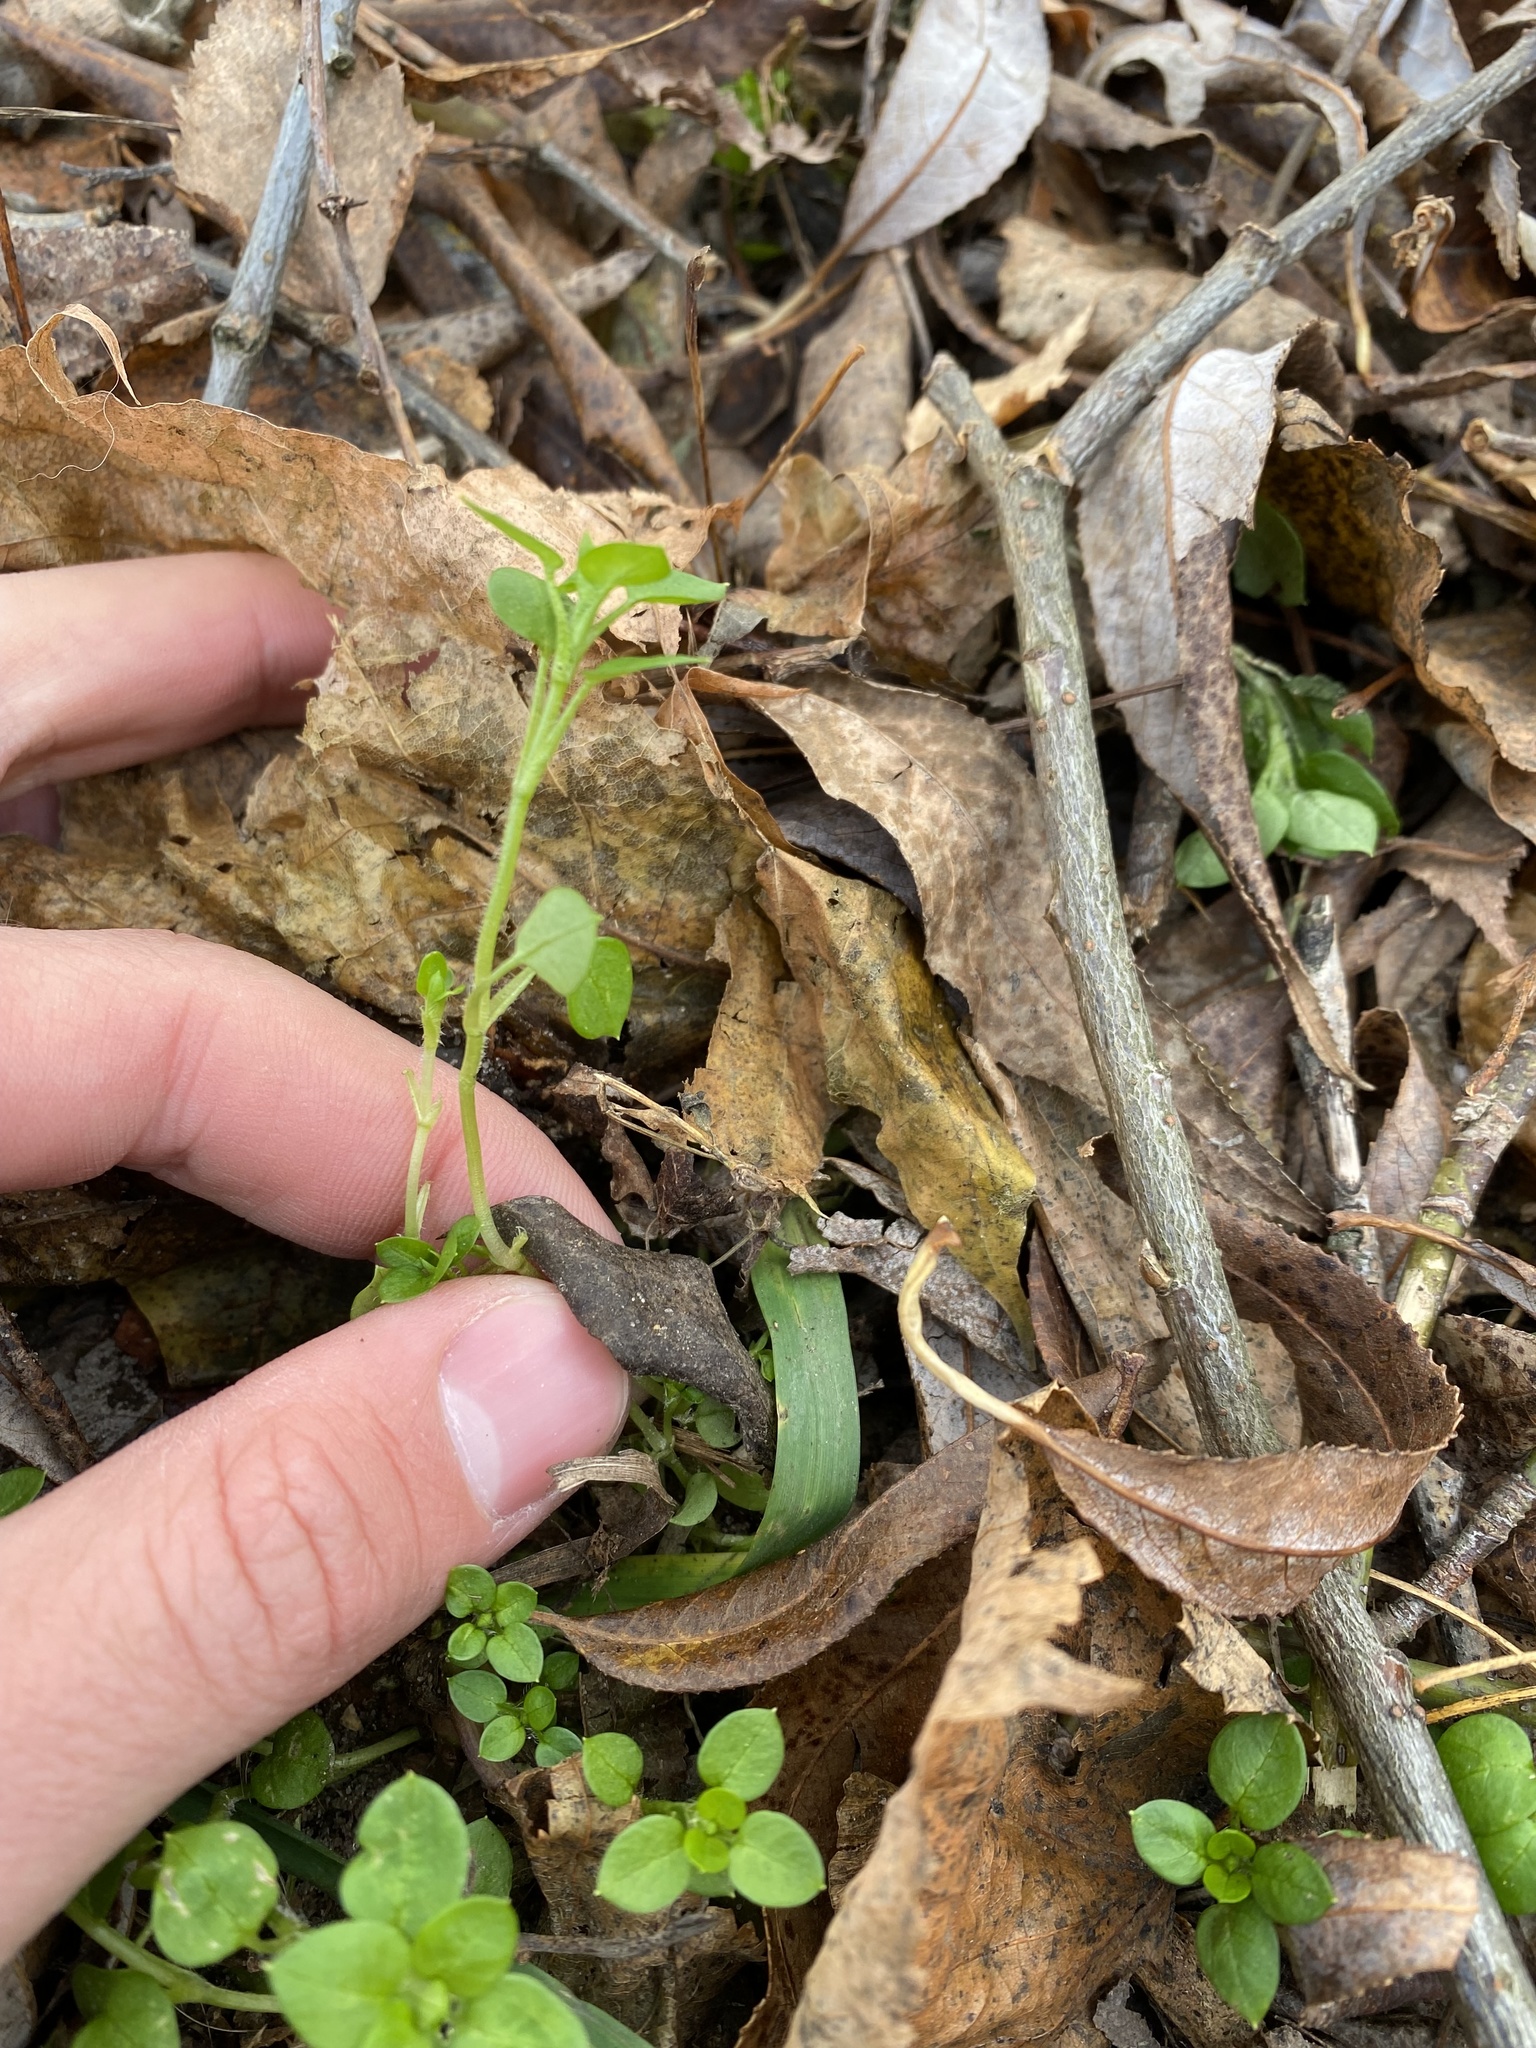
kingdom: Plantae
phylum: Tracheophyta
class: Magnoliopsida
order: Caryophyllales
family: Caryophyllaceae
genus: Stellaria
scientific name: Stellaria media
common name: Common chickweed
